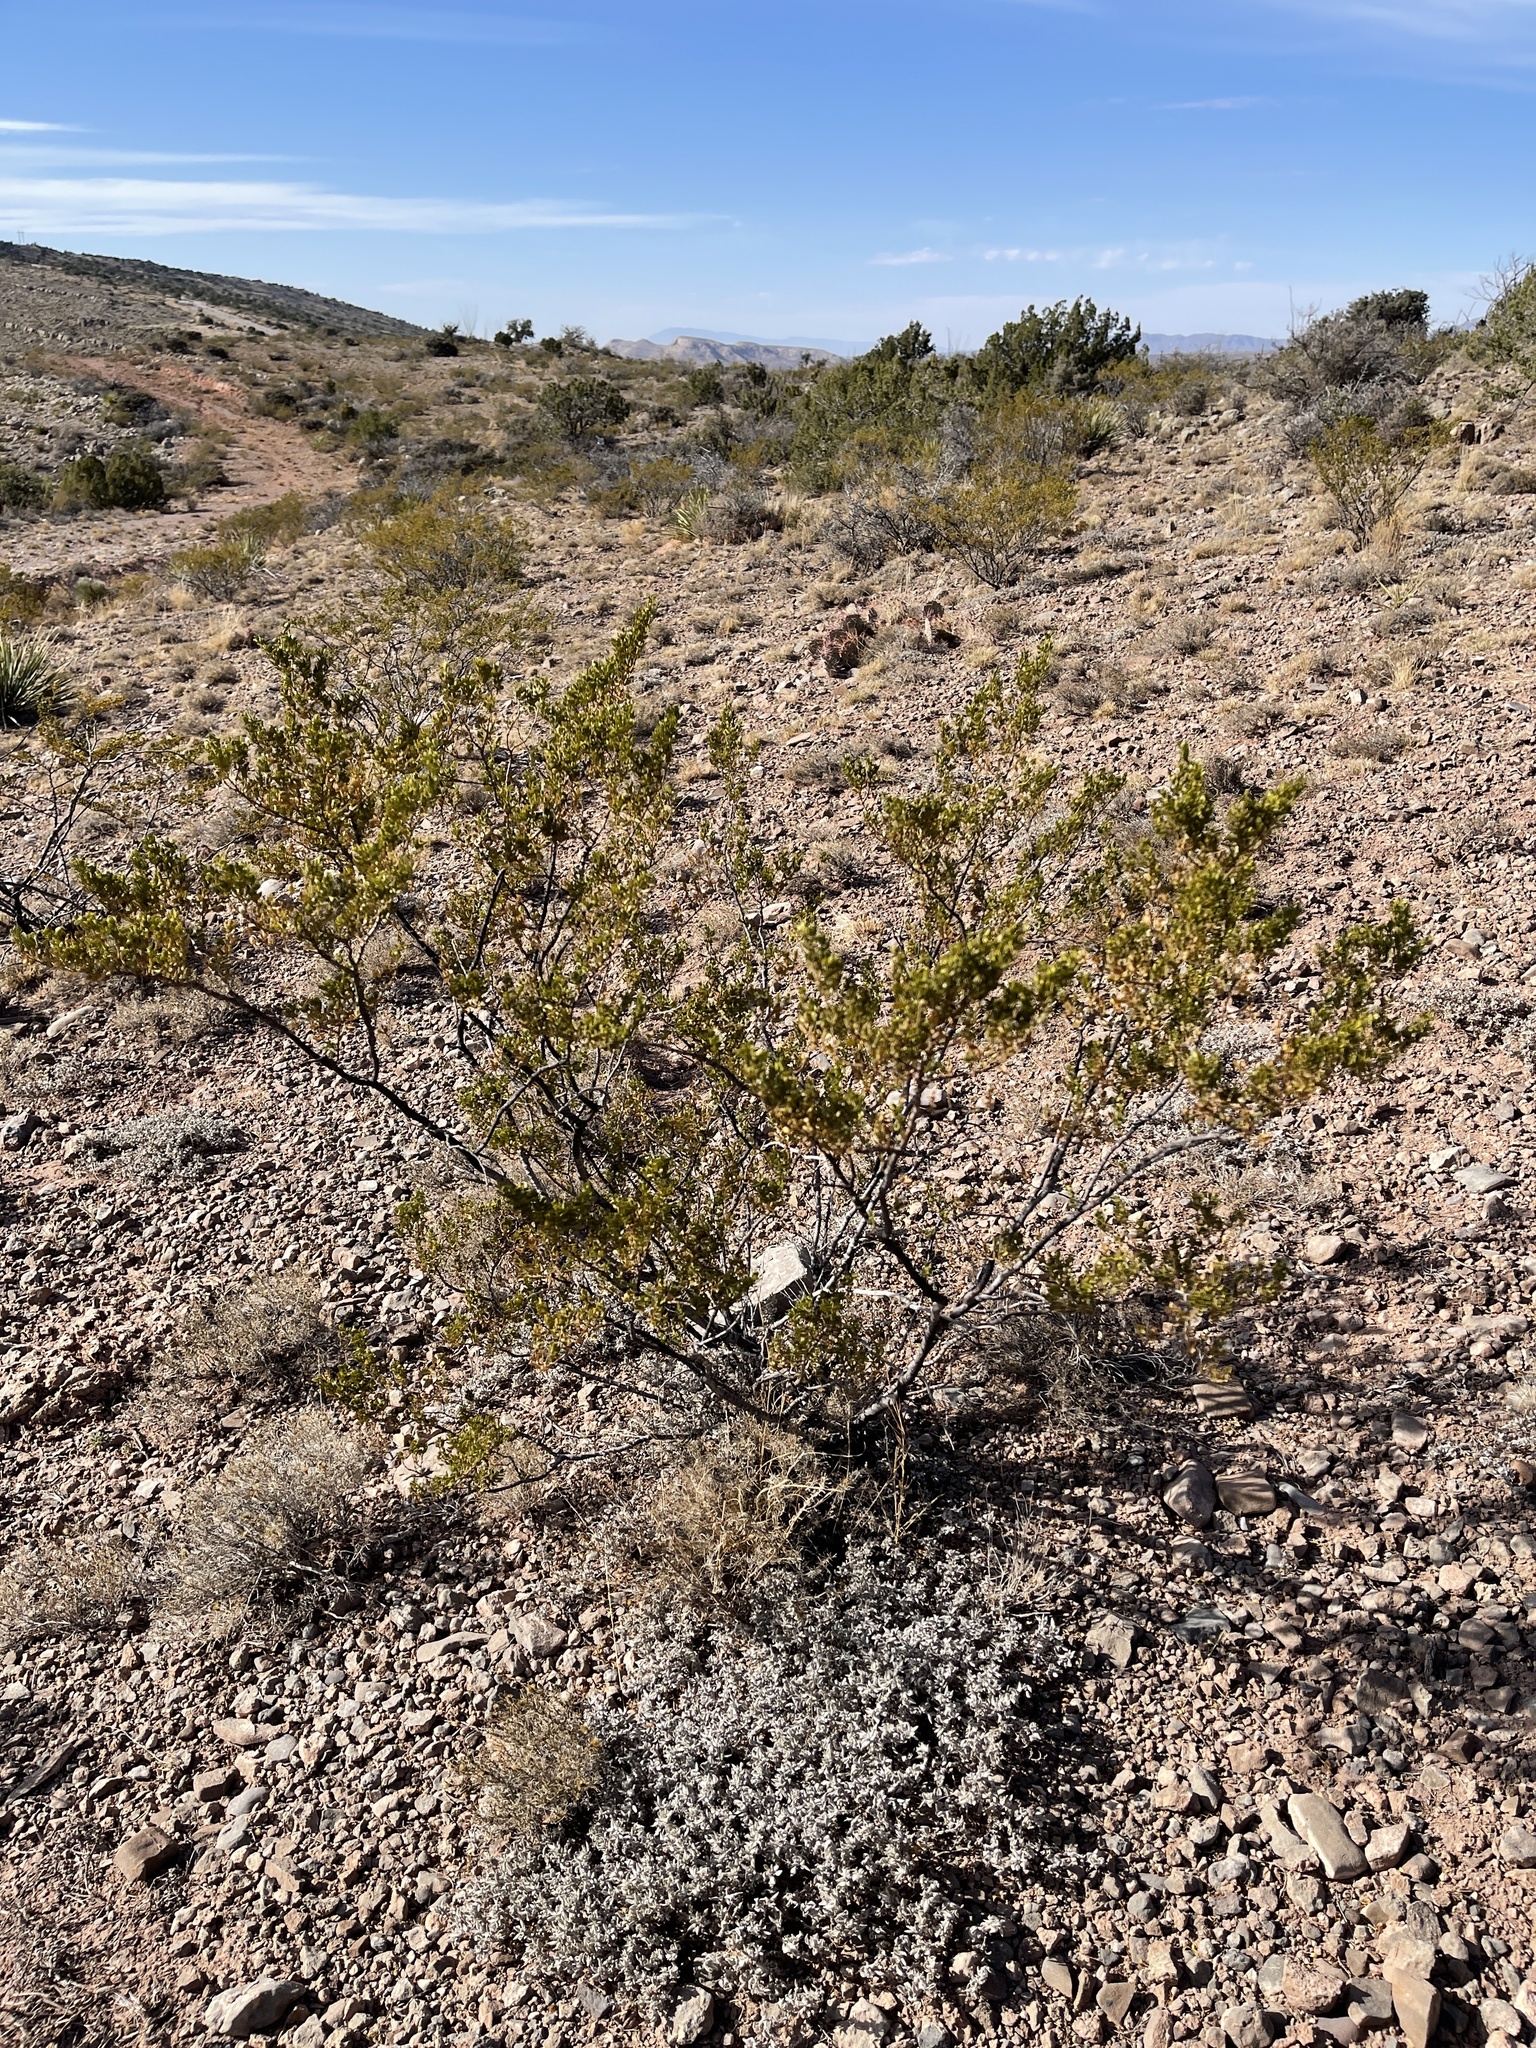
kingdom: Plantae
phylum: Tracheophyta
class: Magnoliopsida
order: Zygophyllales
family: Zygophyllaceae
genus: Larrea
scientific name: Larrea tridentata
